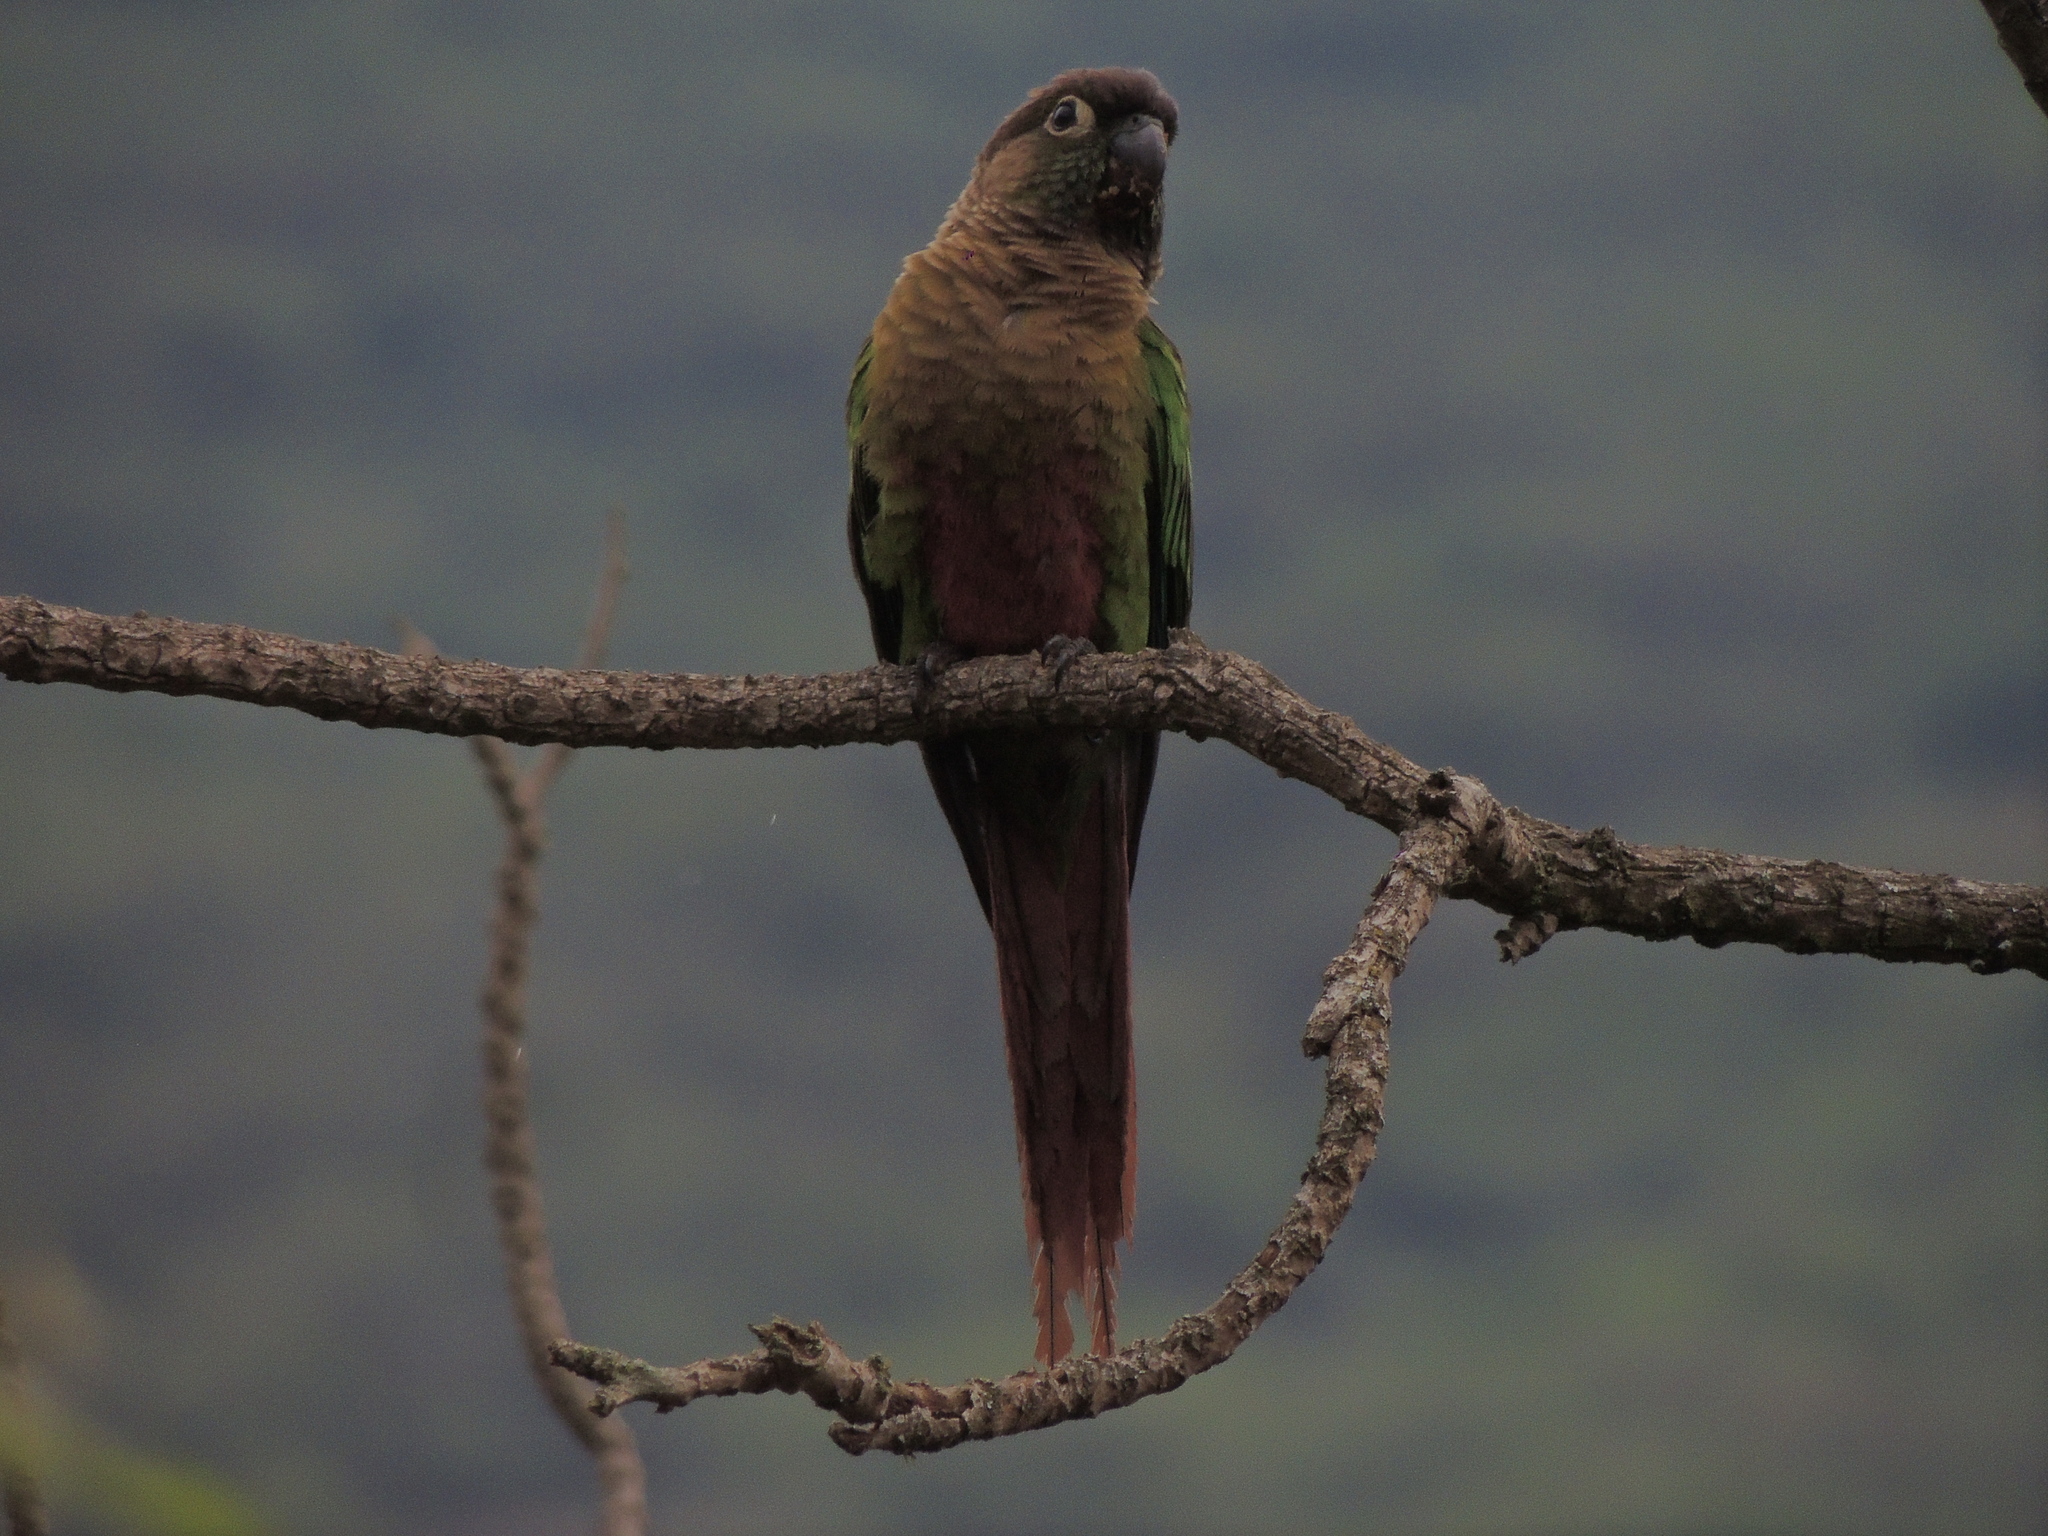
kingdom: Animalia
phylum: Chordata
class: Aves
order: Psittaciformes
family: Psittacidae
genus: Pyrrhura
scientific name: Pyrrhura molinae
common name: Green-cheeked parakeet
